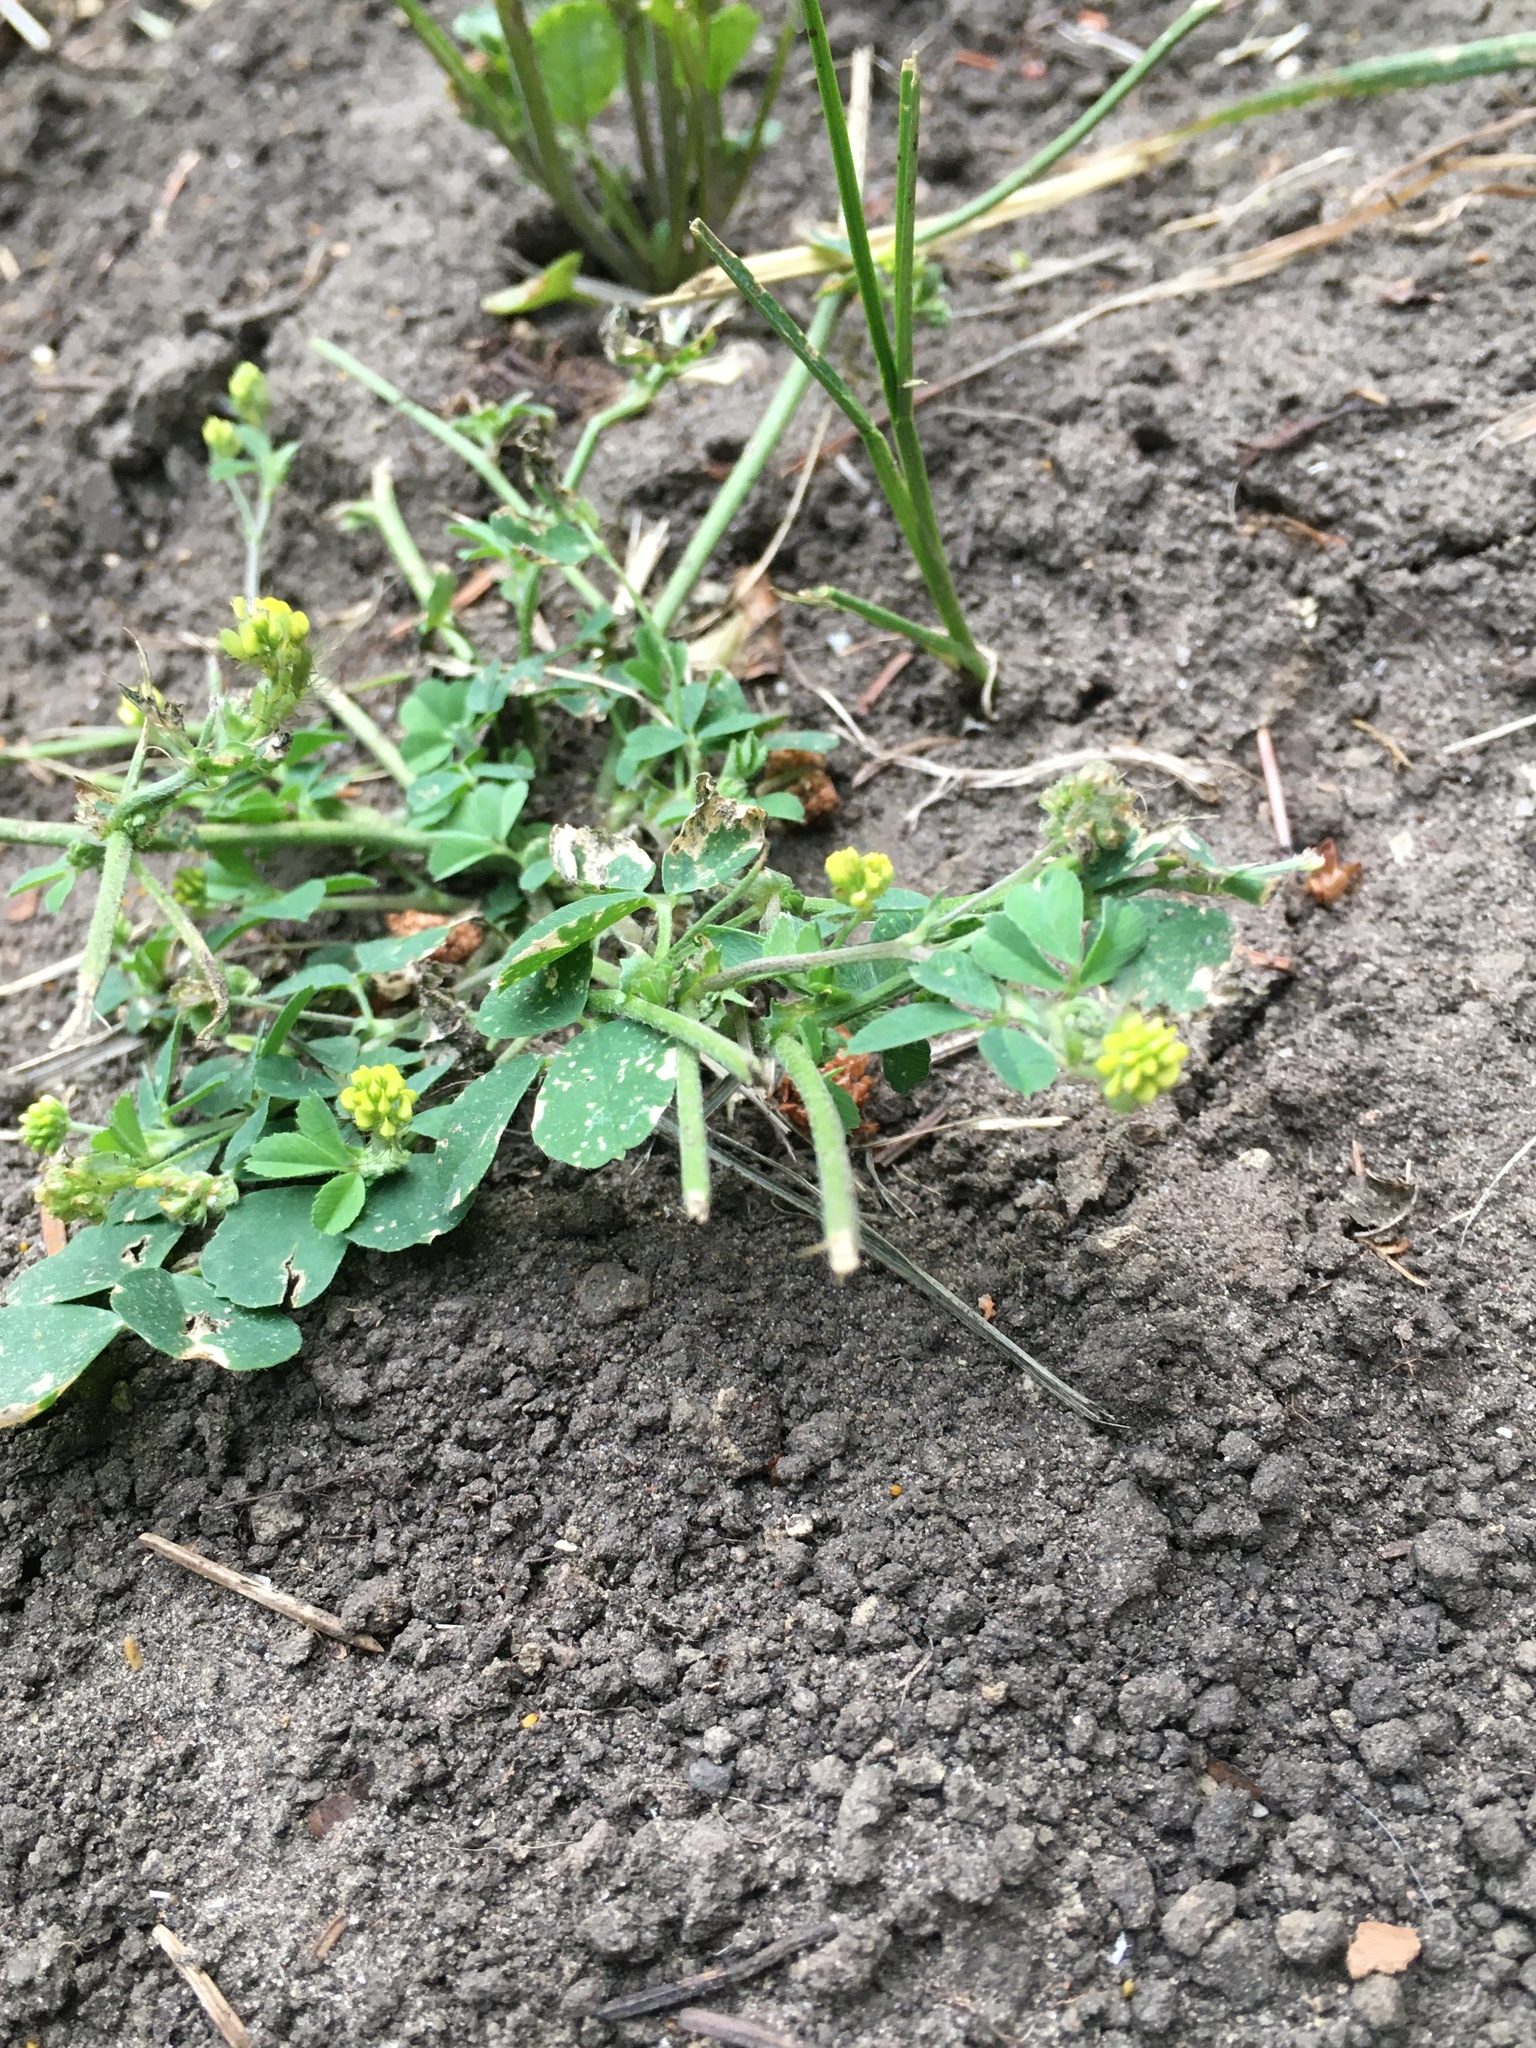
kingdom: Plantae
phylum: Tracheophyta
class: Magnoliopsida
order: Fabales
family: Fabaceae
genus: Medicago
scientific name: Medicago lupulina
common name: Black medick
